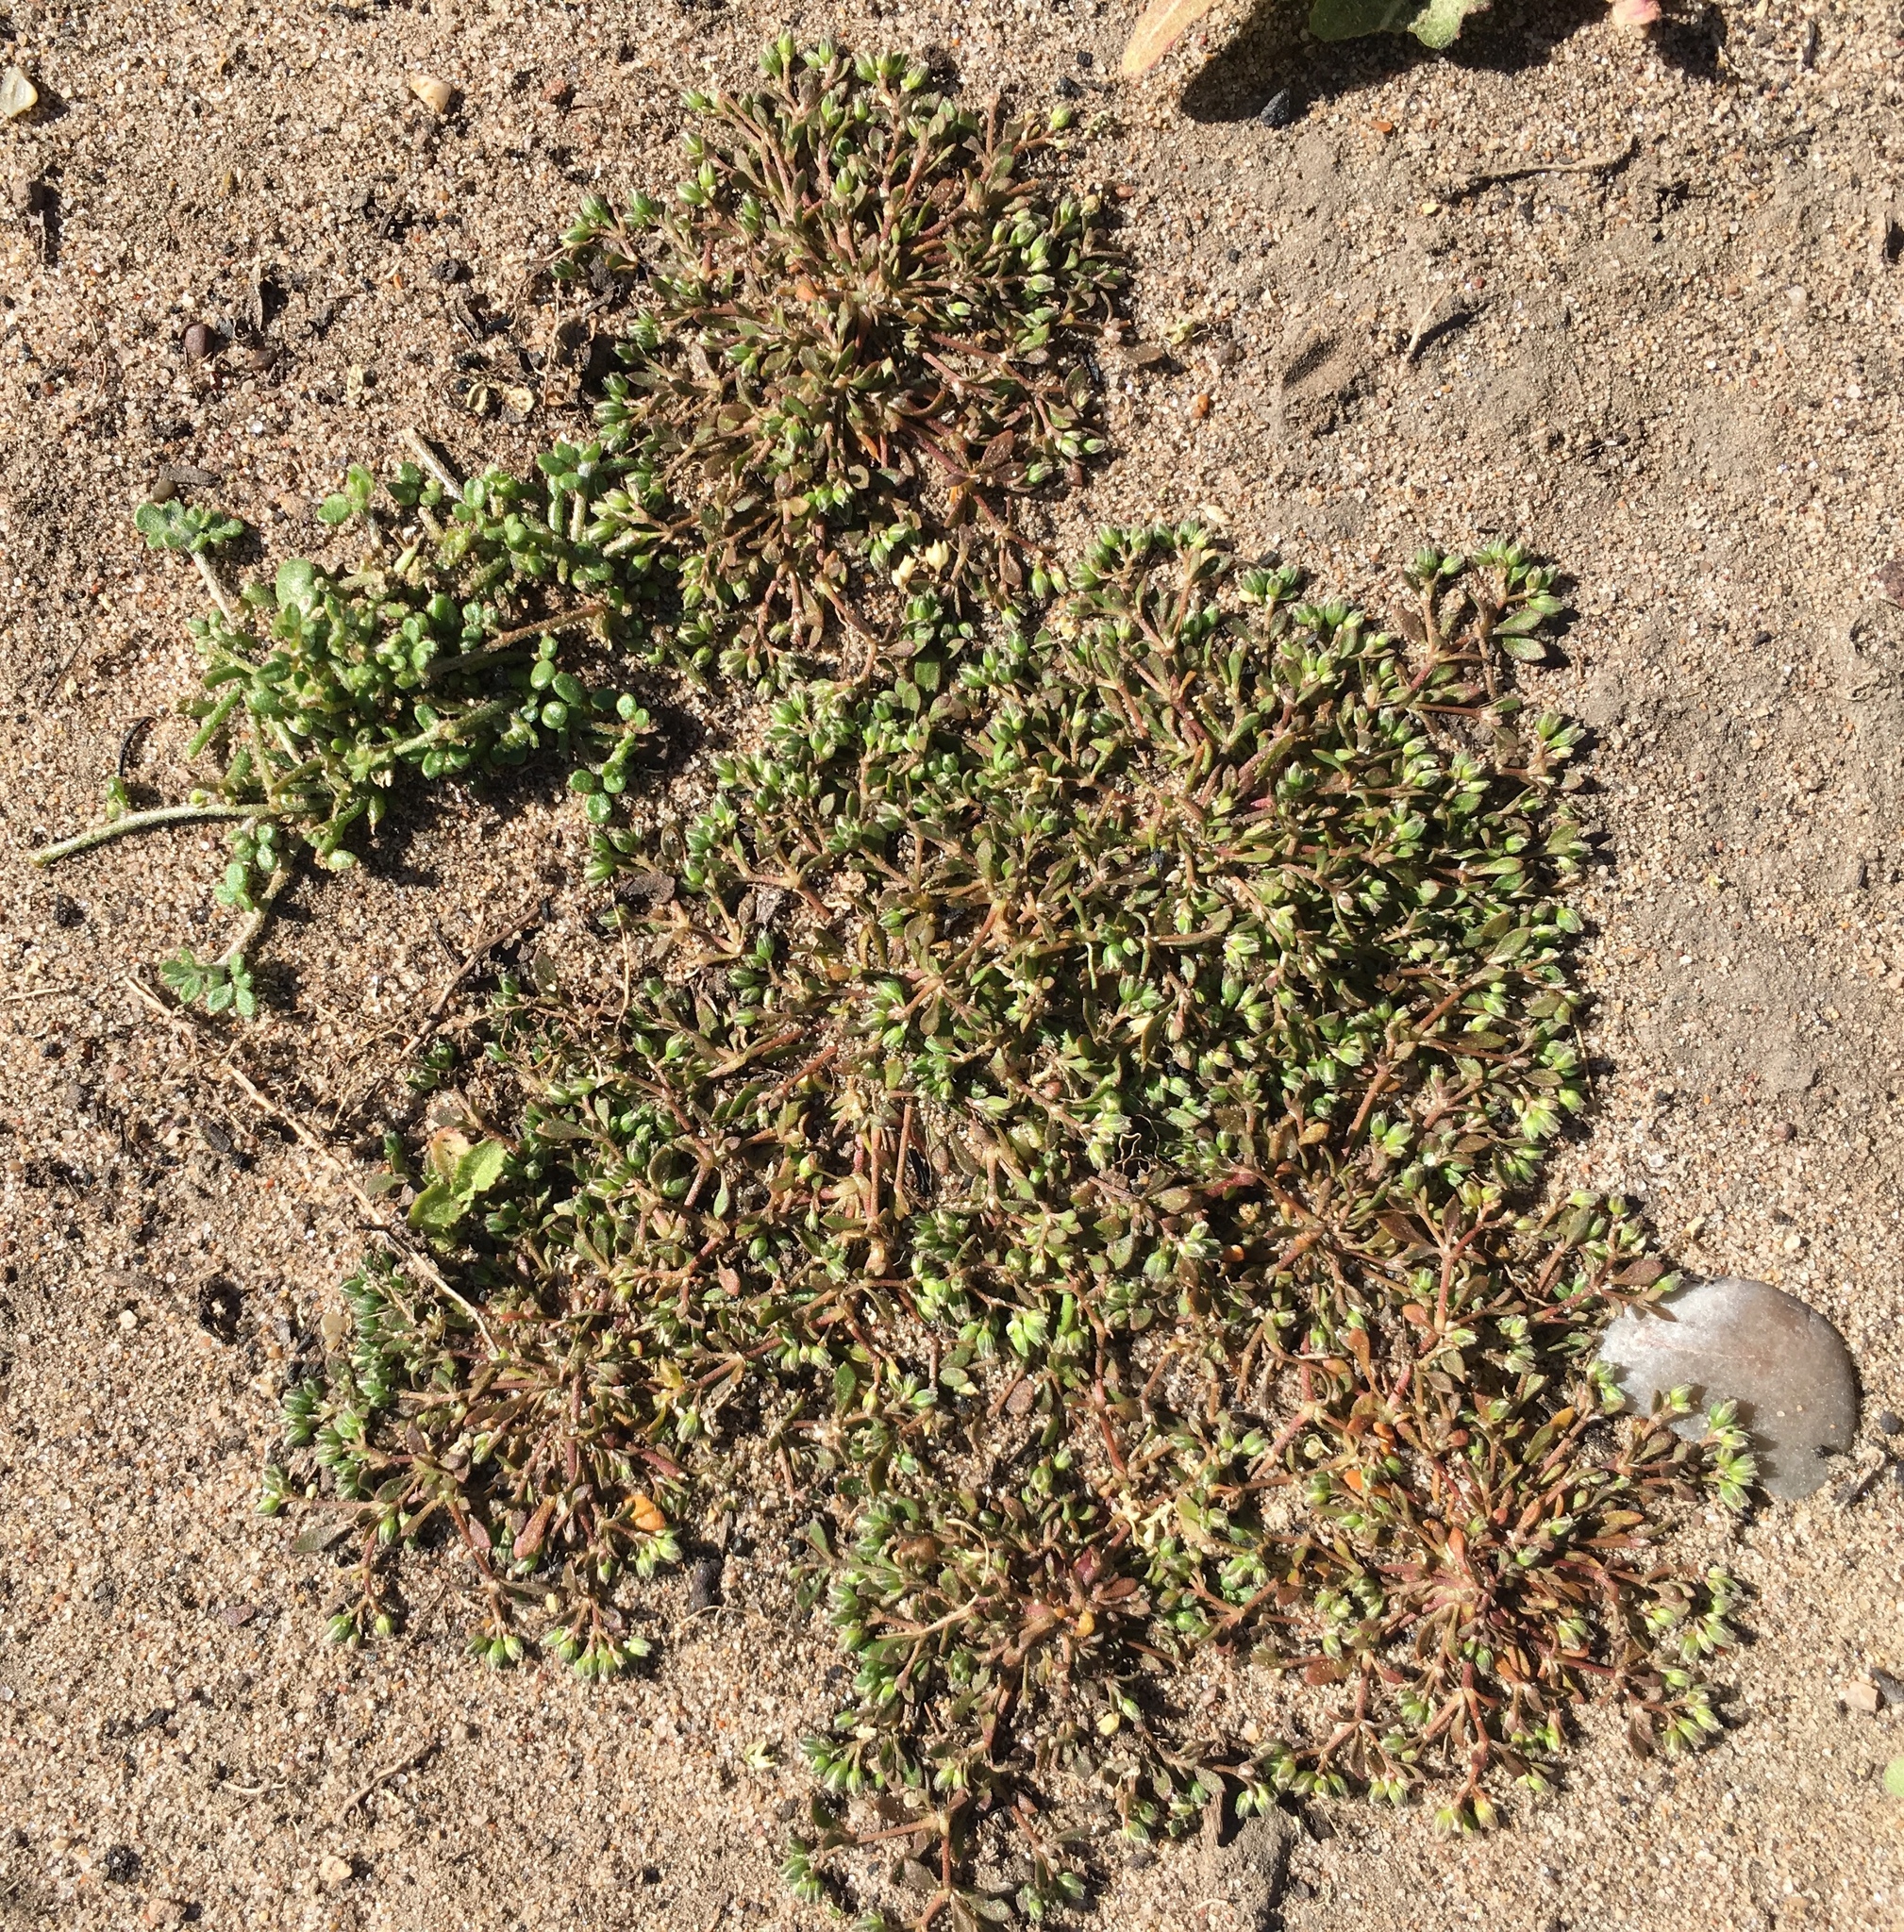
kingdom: Plantae
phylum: Tracheophyta
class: Magnoliopsida
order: Caryophyllales
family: Caryophyllaceae
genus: Polycarpon
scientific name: Polycarpon depressum
